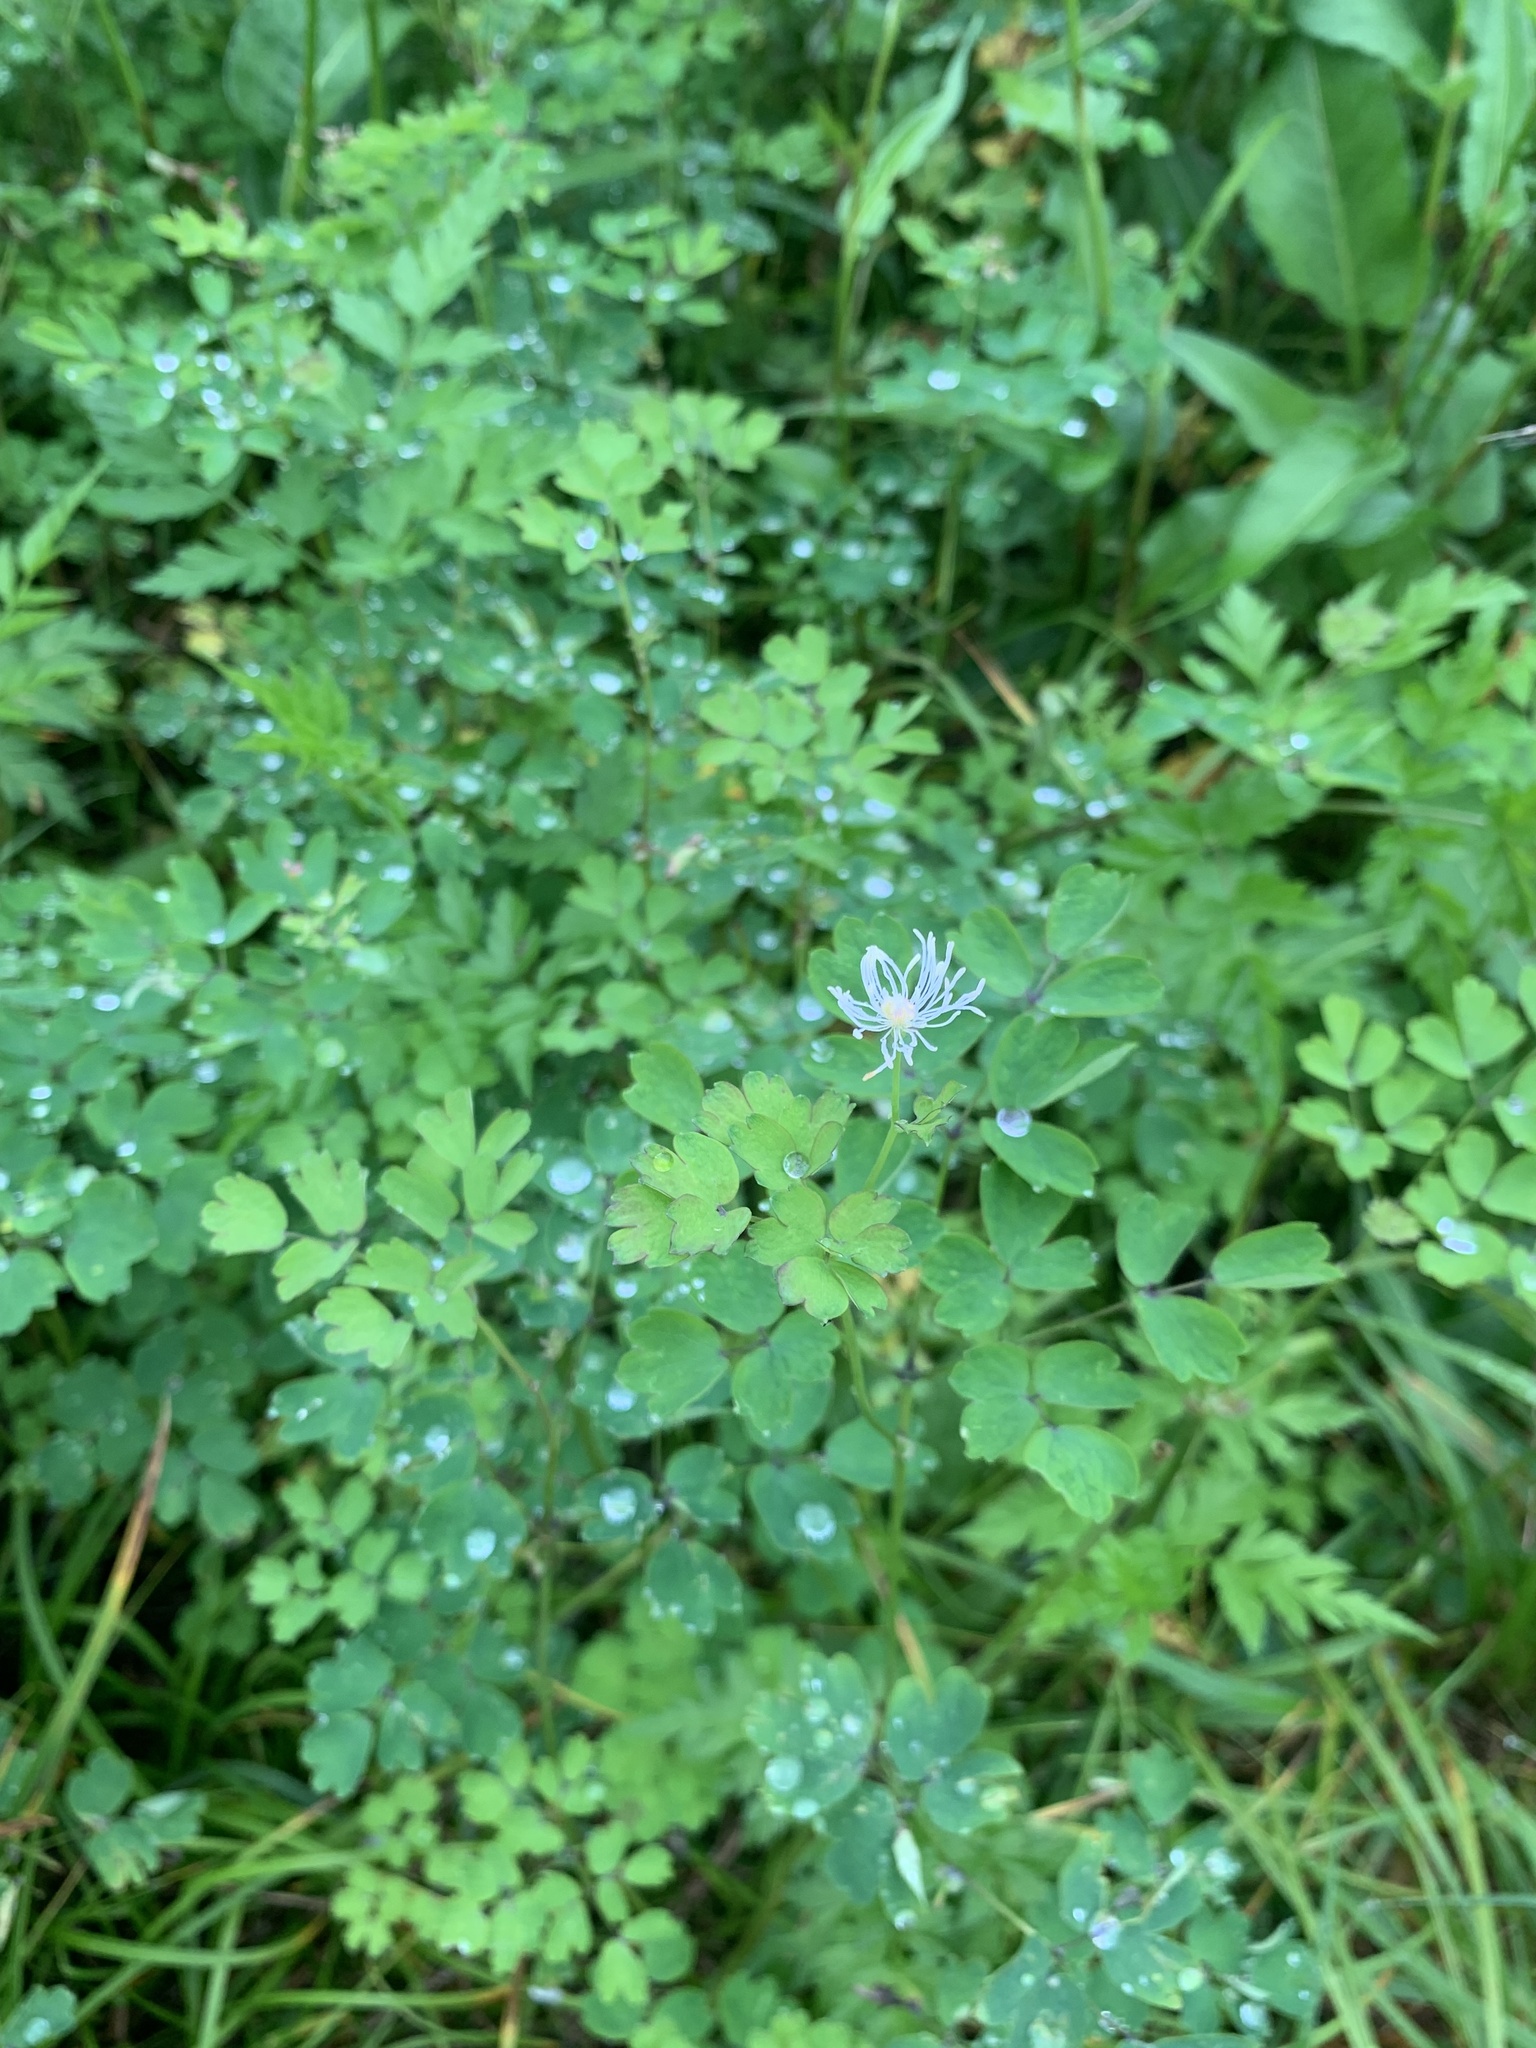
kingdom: Plantae
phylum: Tracheophyta
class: Magnoliopsida
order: Ranunculales
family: Ranunculaceae
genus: Thalictrum
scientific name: Thalictrum aquilegiifolium
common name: French meadow-rue
